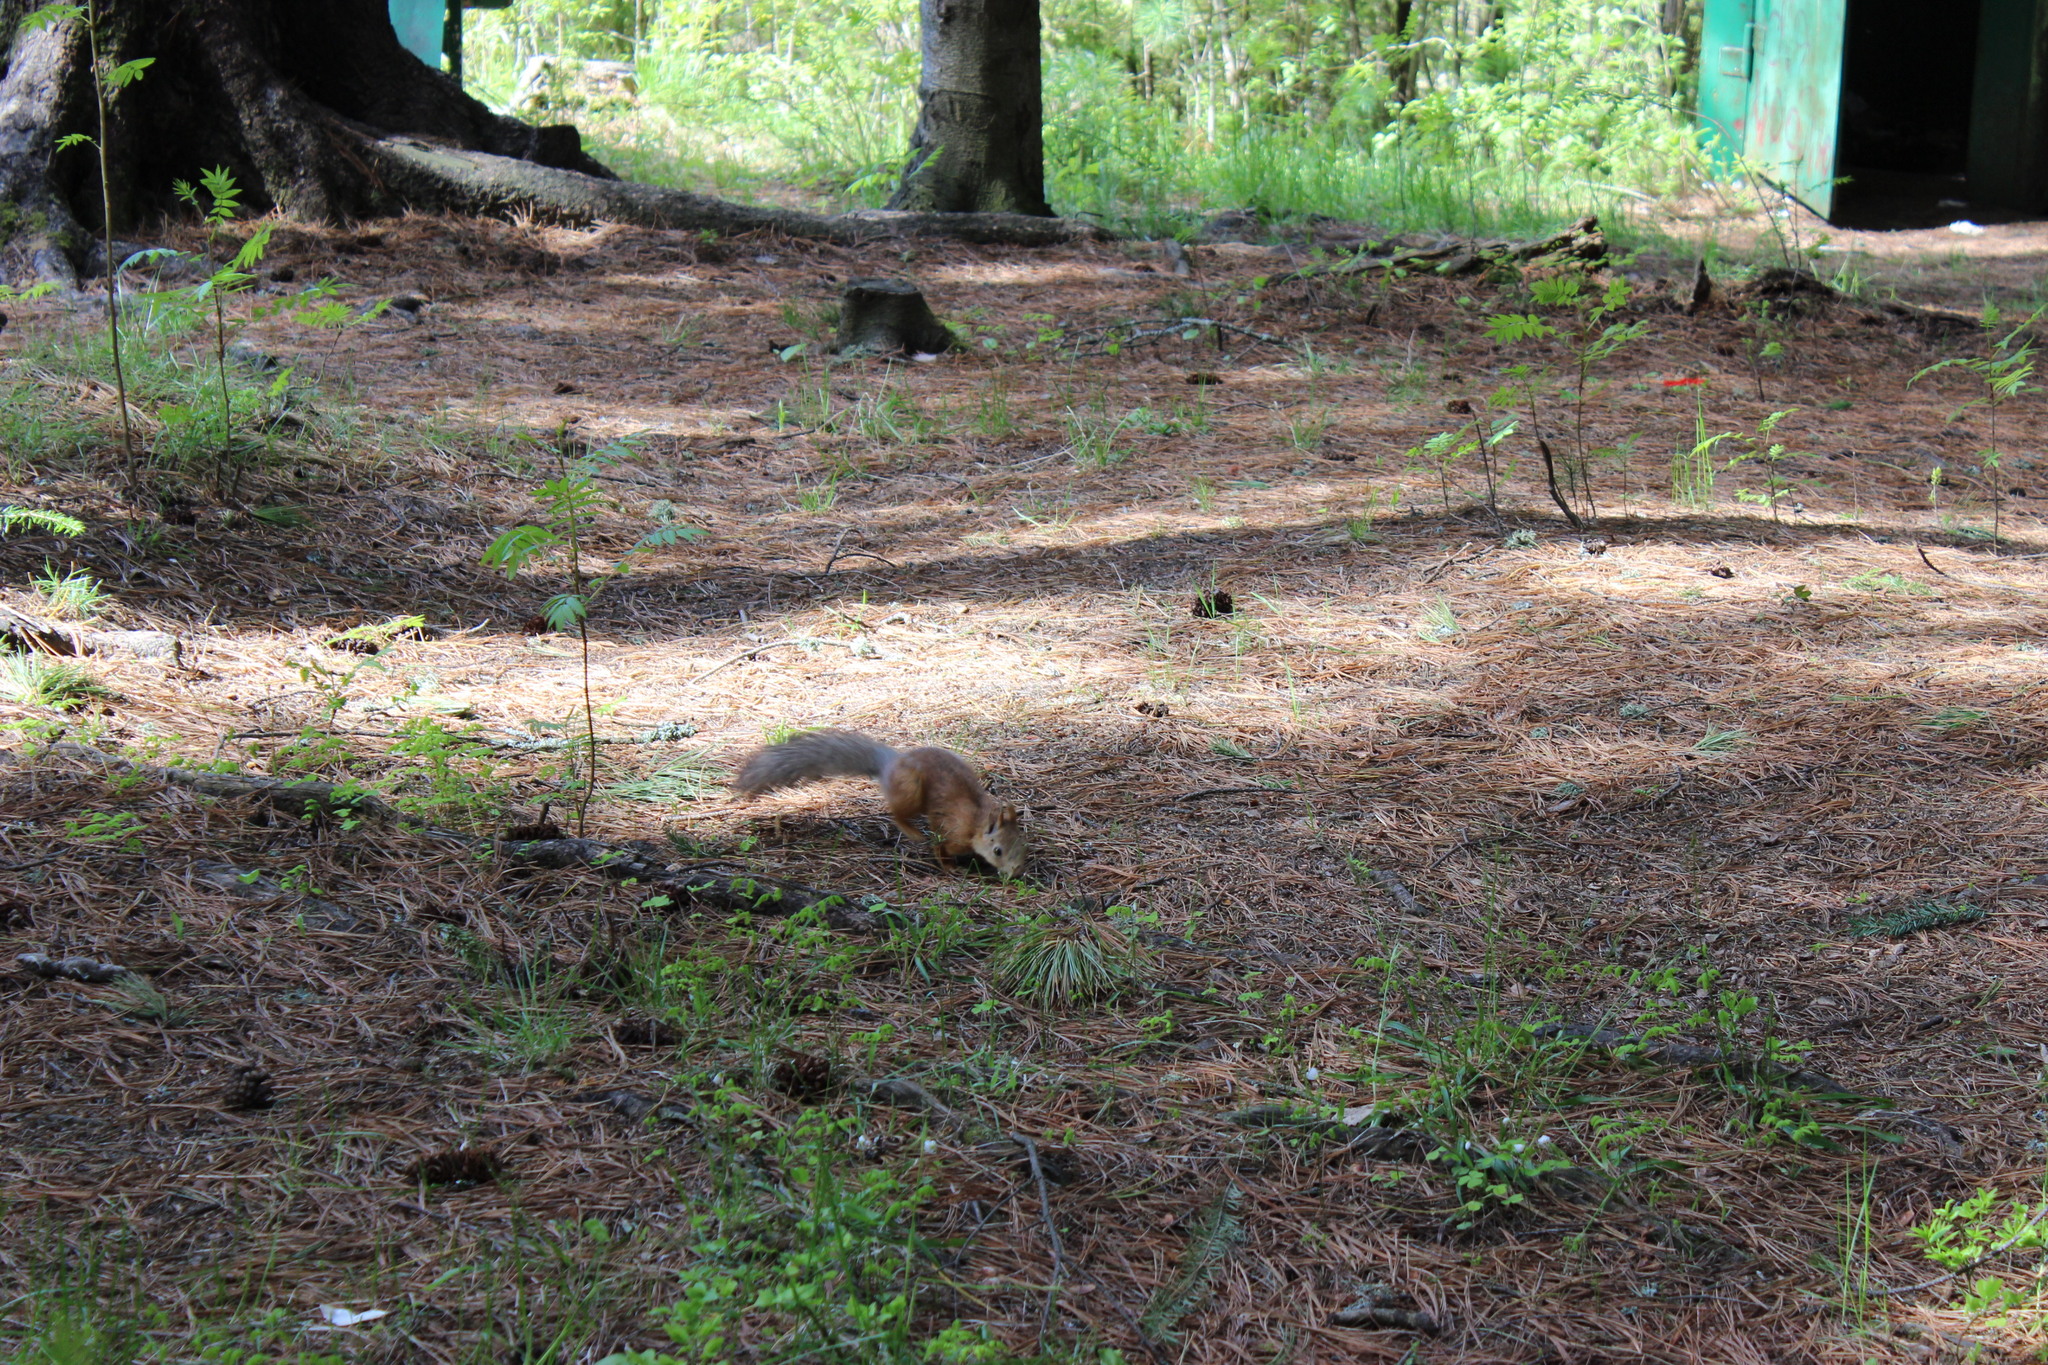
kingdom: Animalia
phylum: Chordata
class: Mammalia
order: Rodentia
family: Sciuridae
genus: Sciurus
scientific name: Sciurus vulgaris
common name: Eurasian red squirrel
